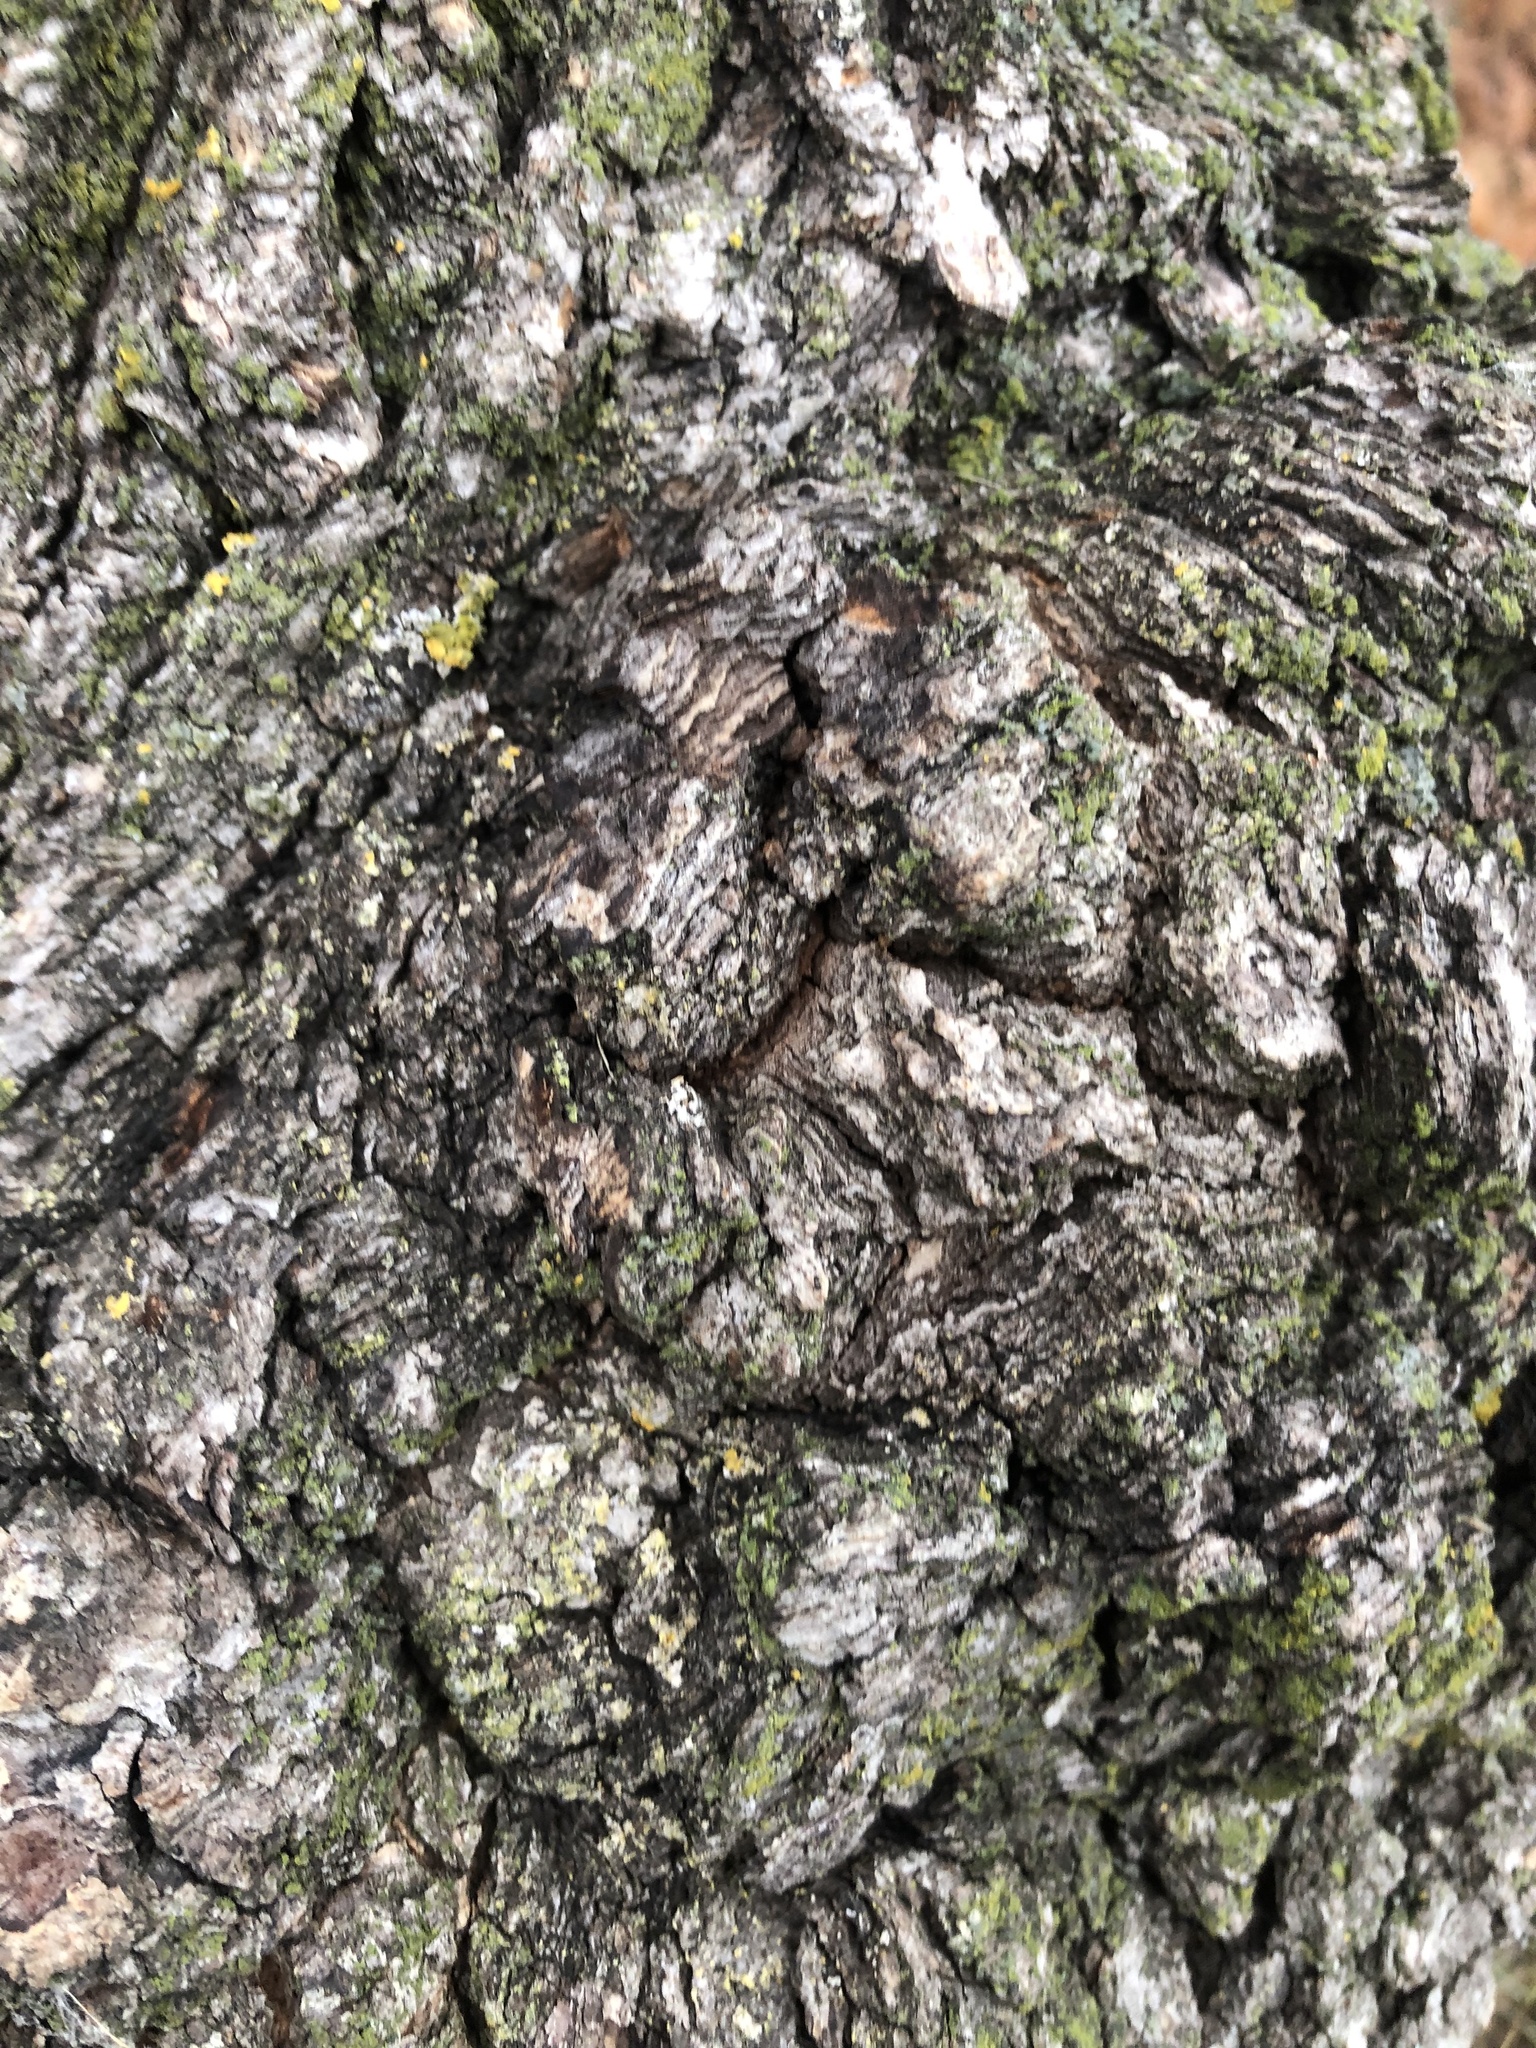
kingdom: Bacteria
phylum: Proteobacteria
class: Alphaproteobacteria
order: Rhizobiales
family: Rhizobiaceae
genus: Rhizobium
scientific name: Rhizobium Agrobacterium radiobacter
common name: Bacterial crown gall
